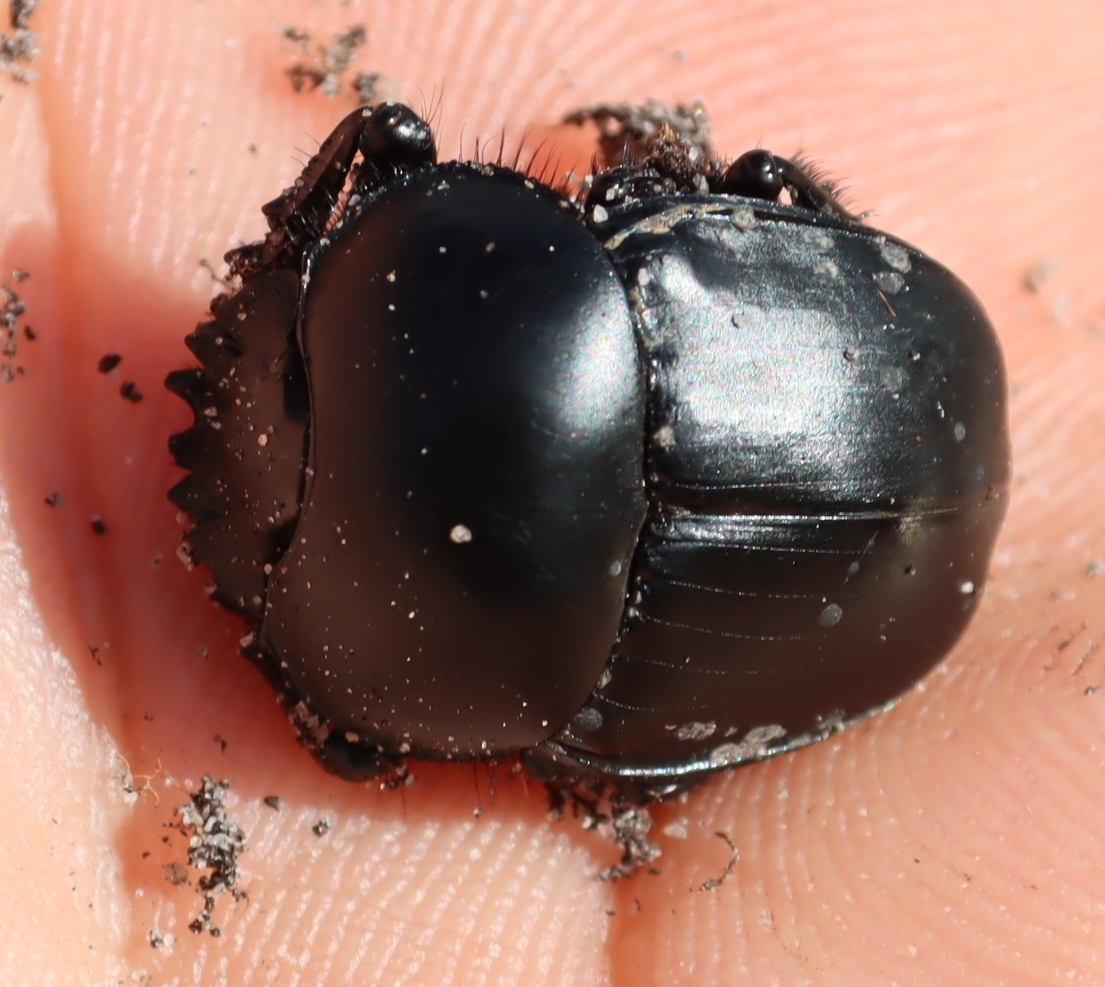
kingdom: Animalia
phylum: Arthropoda
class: Insecta
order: Coleoptera
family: Scarabaeidae
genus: Scarabaeus
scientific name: Scarabaeus convexus
